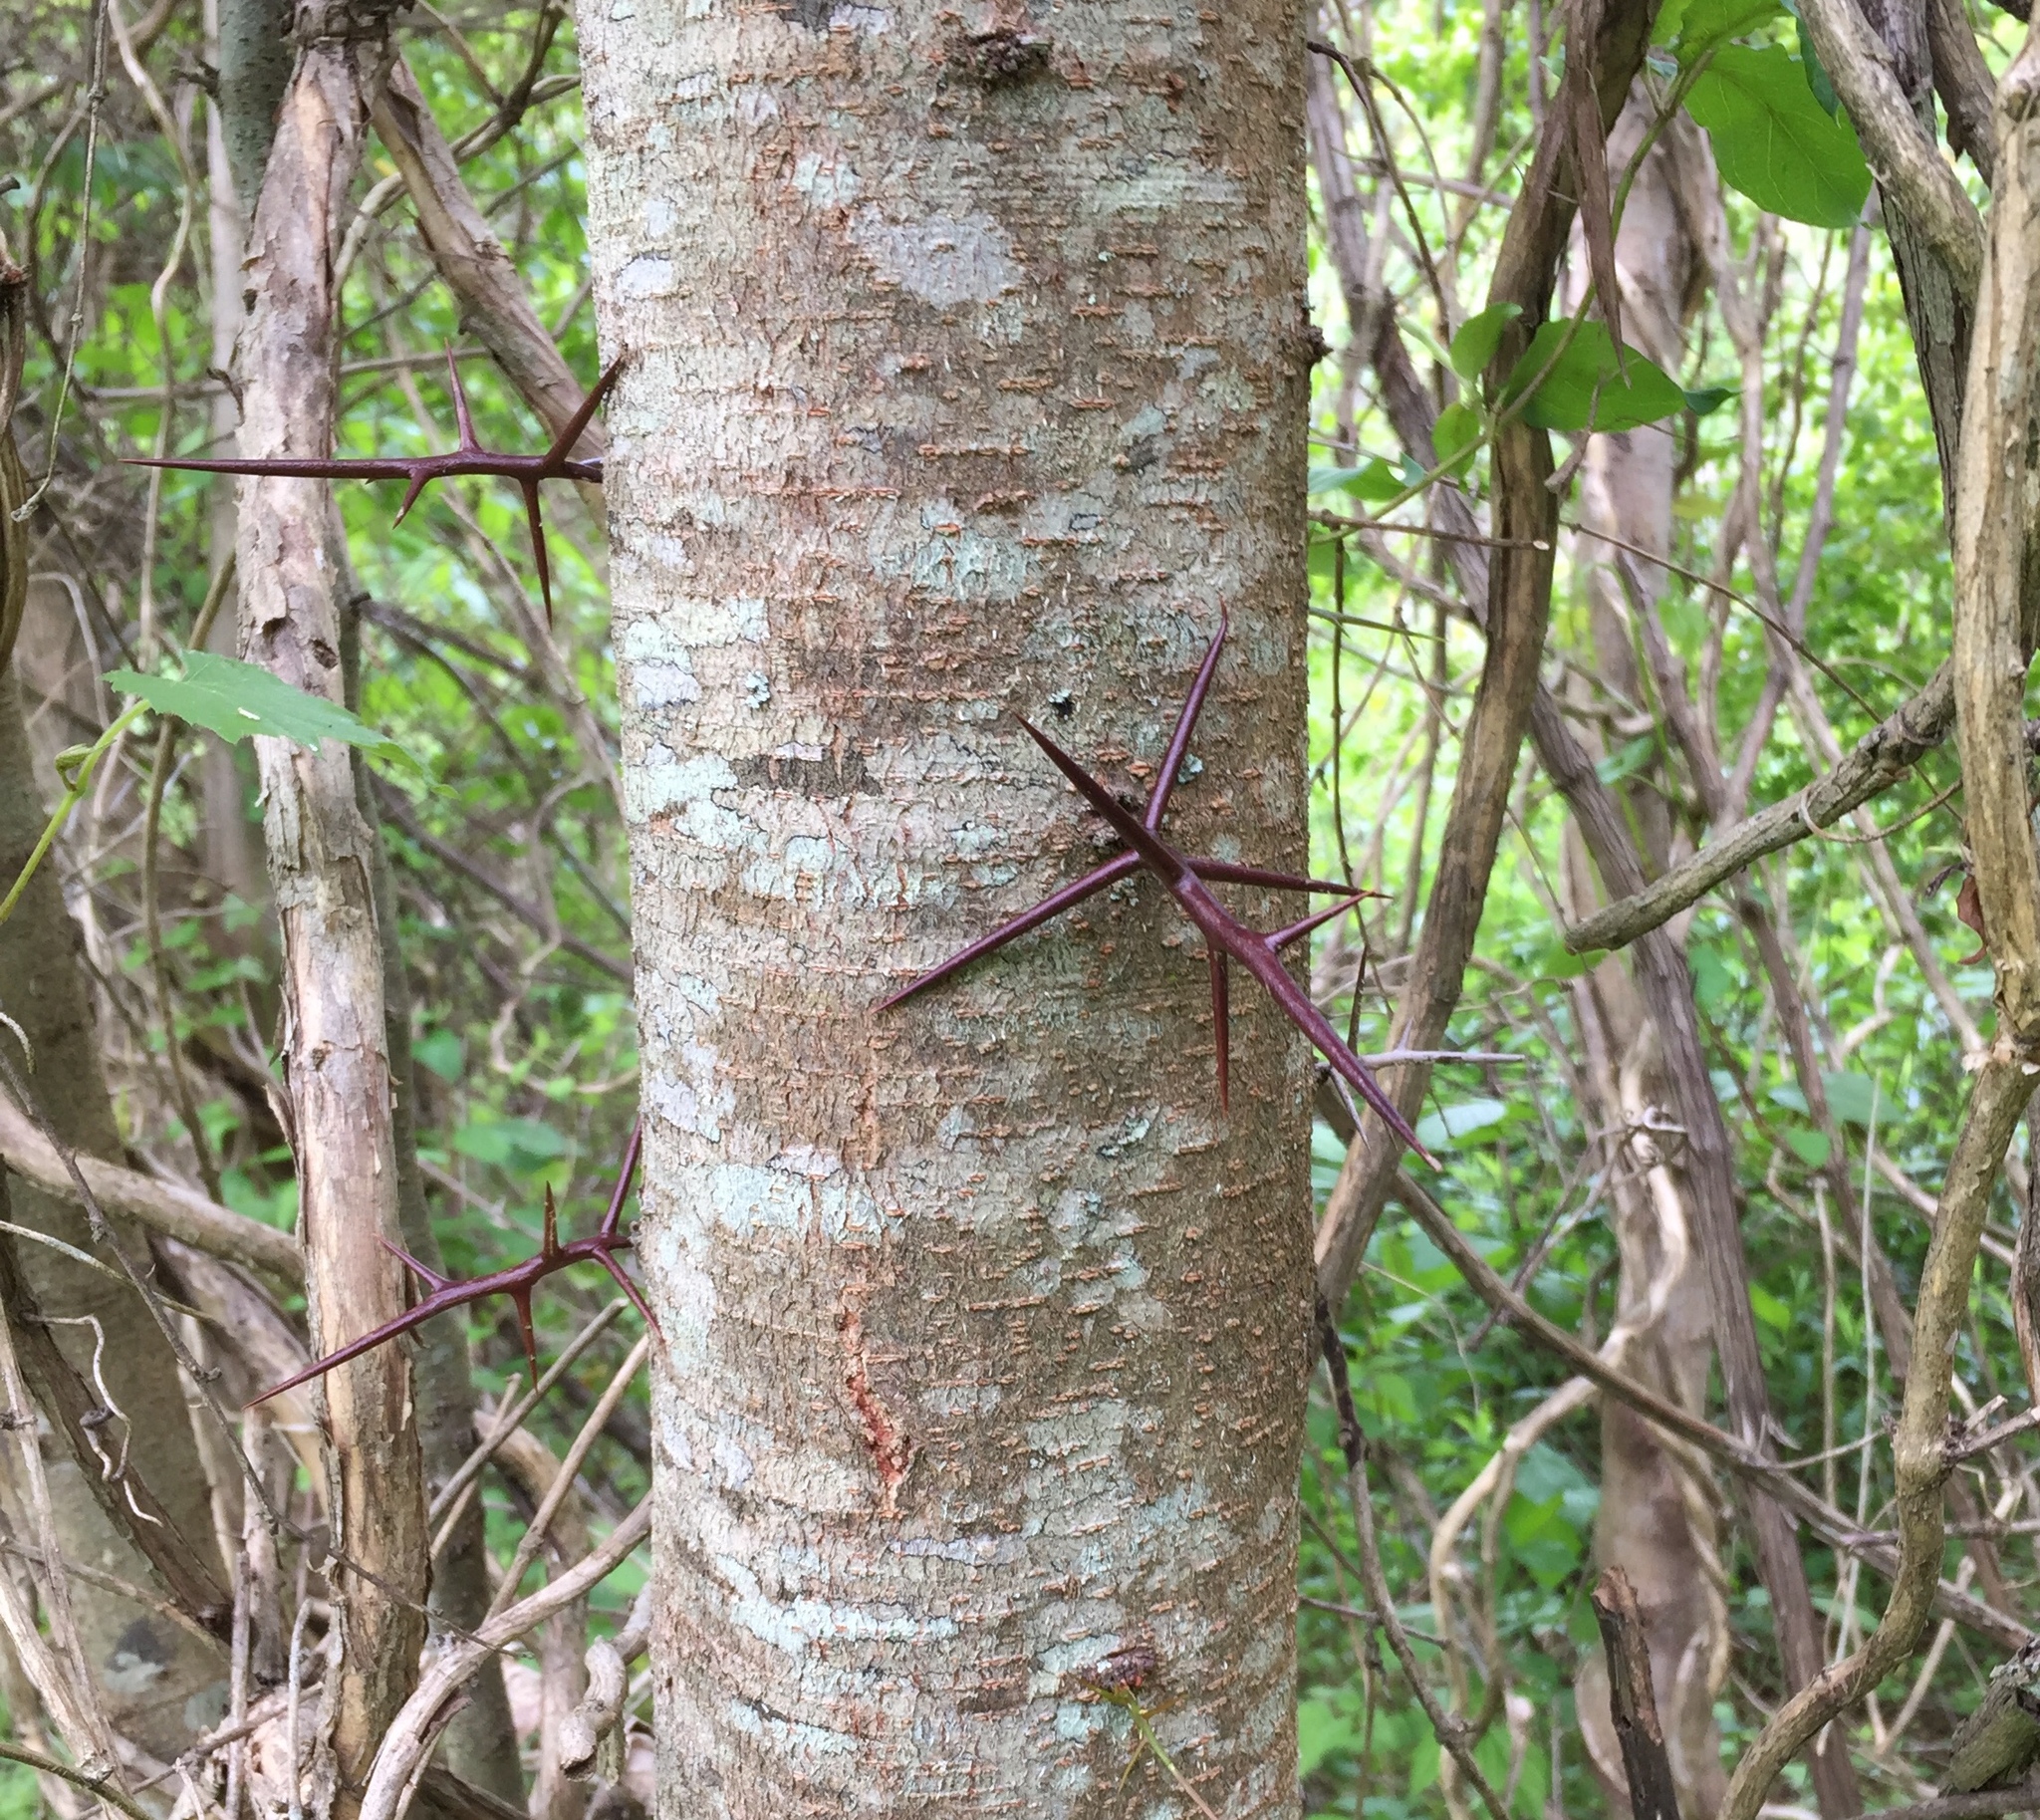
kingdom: Plantae
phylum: Tracheophyta
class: Magnoliopsida
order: Fabales
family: Fabaceae
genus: Gleditsia
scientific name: Gleditsia triacanthos
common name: Common honeylocust
